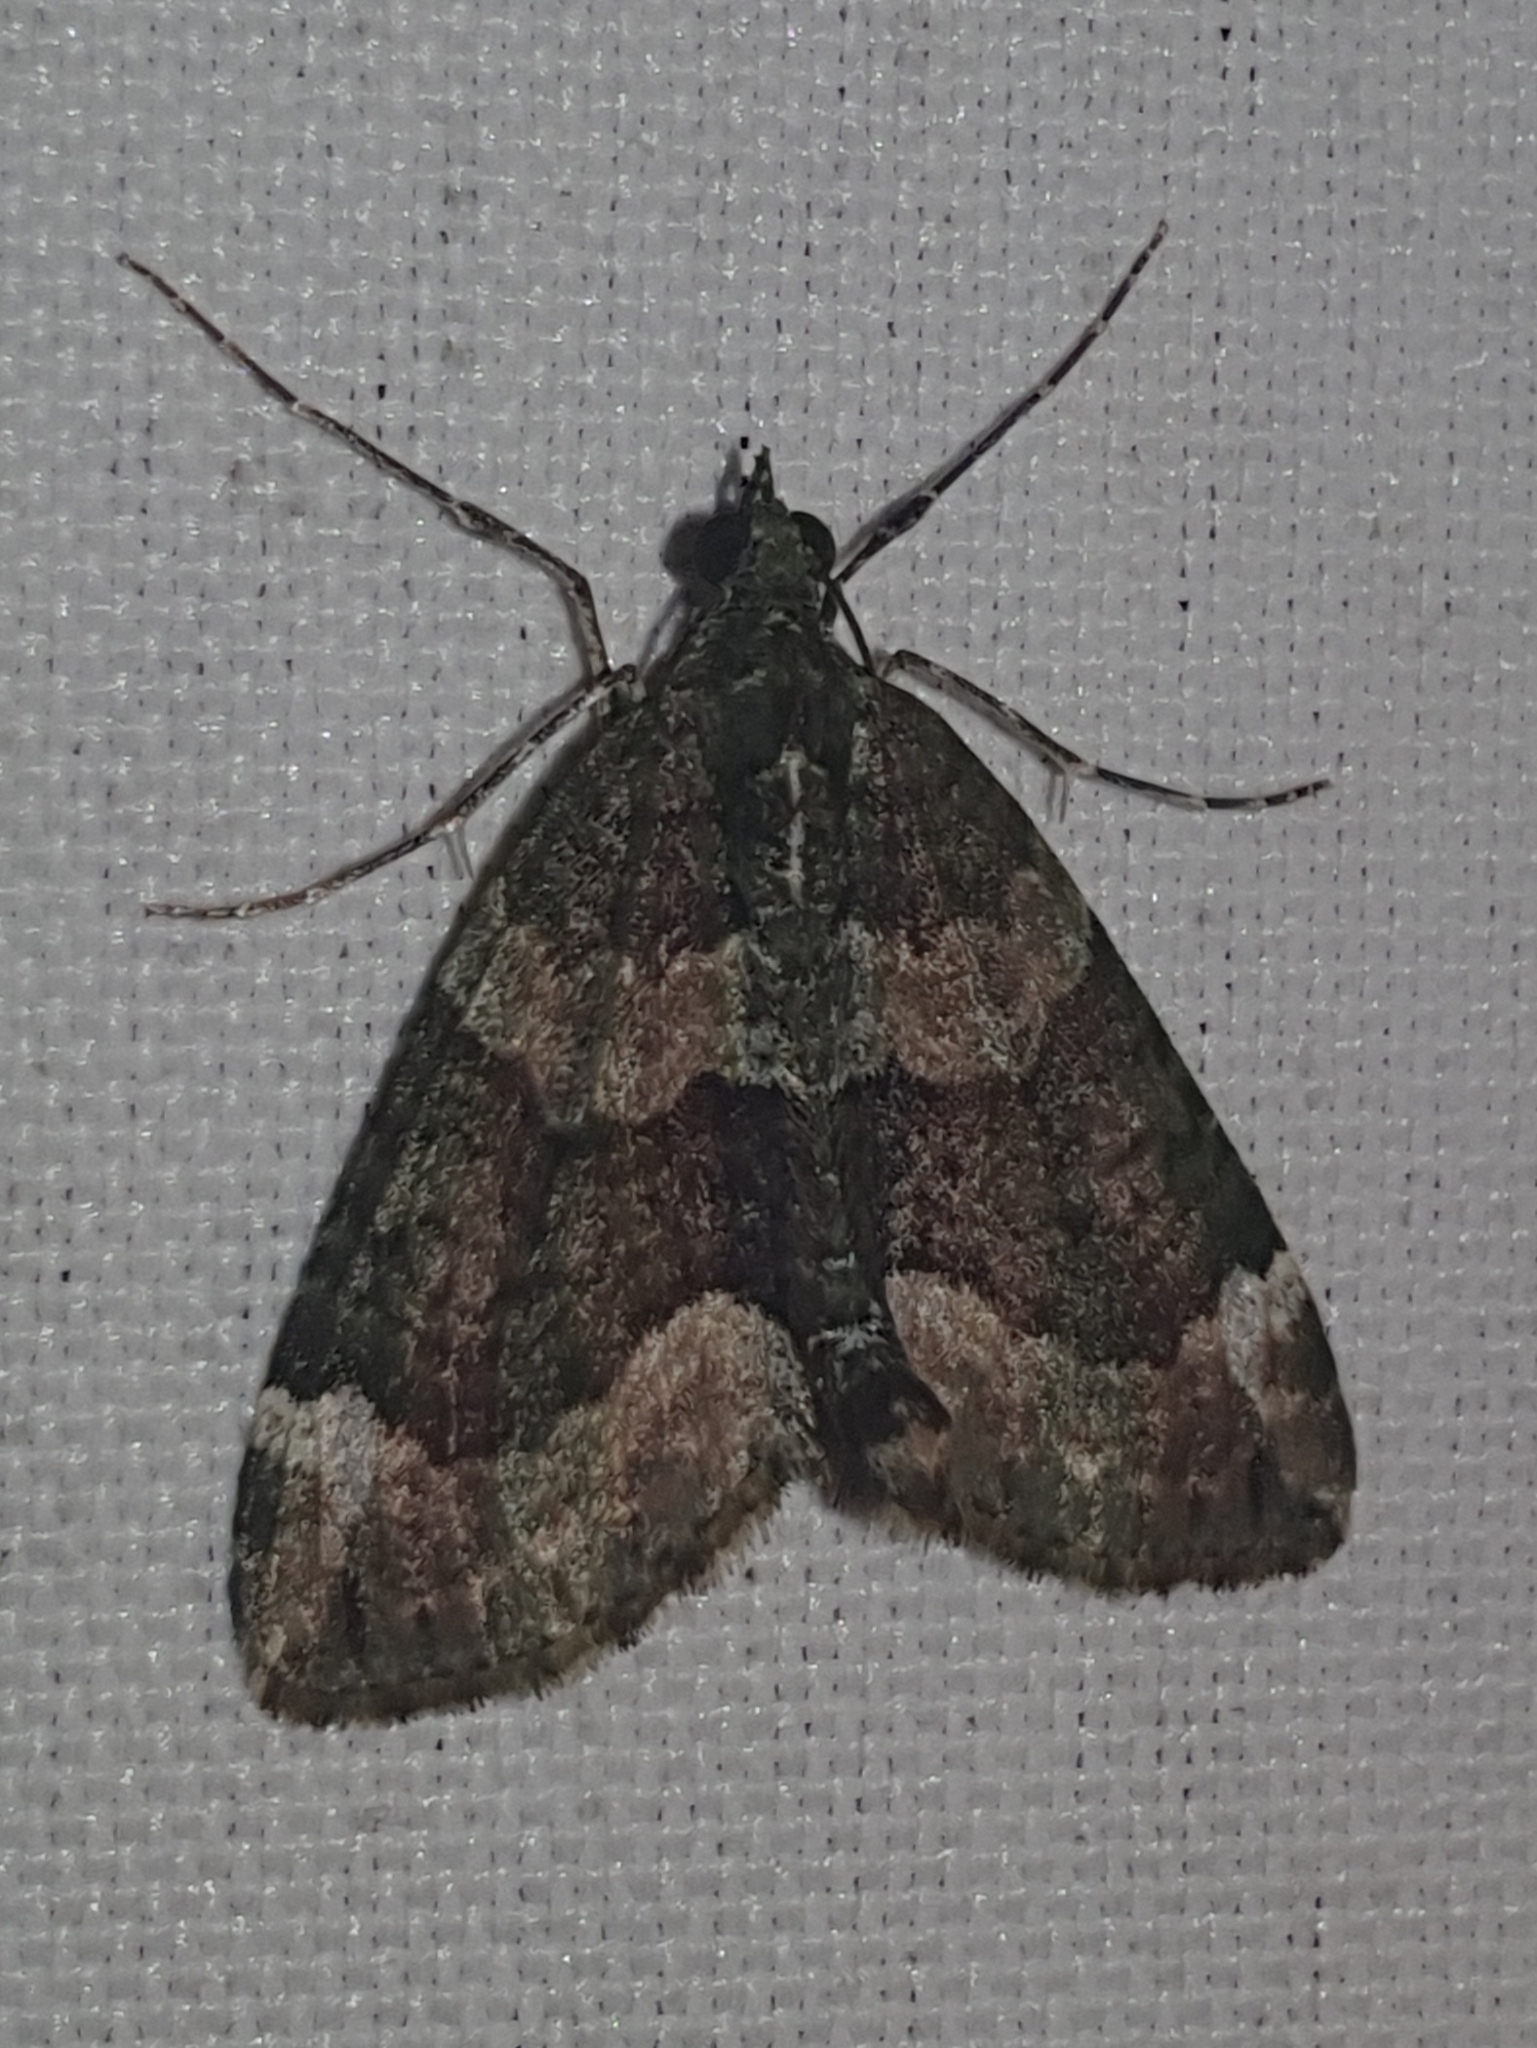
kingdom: Animalia
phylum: Arthropoda
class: Insecta
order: Lepidoptera
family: Geometridae
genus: Chloroclysta
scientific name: Chloroclysta siterata
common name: Red-green carpet
